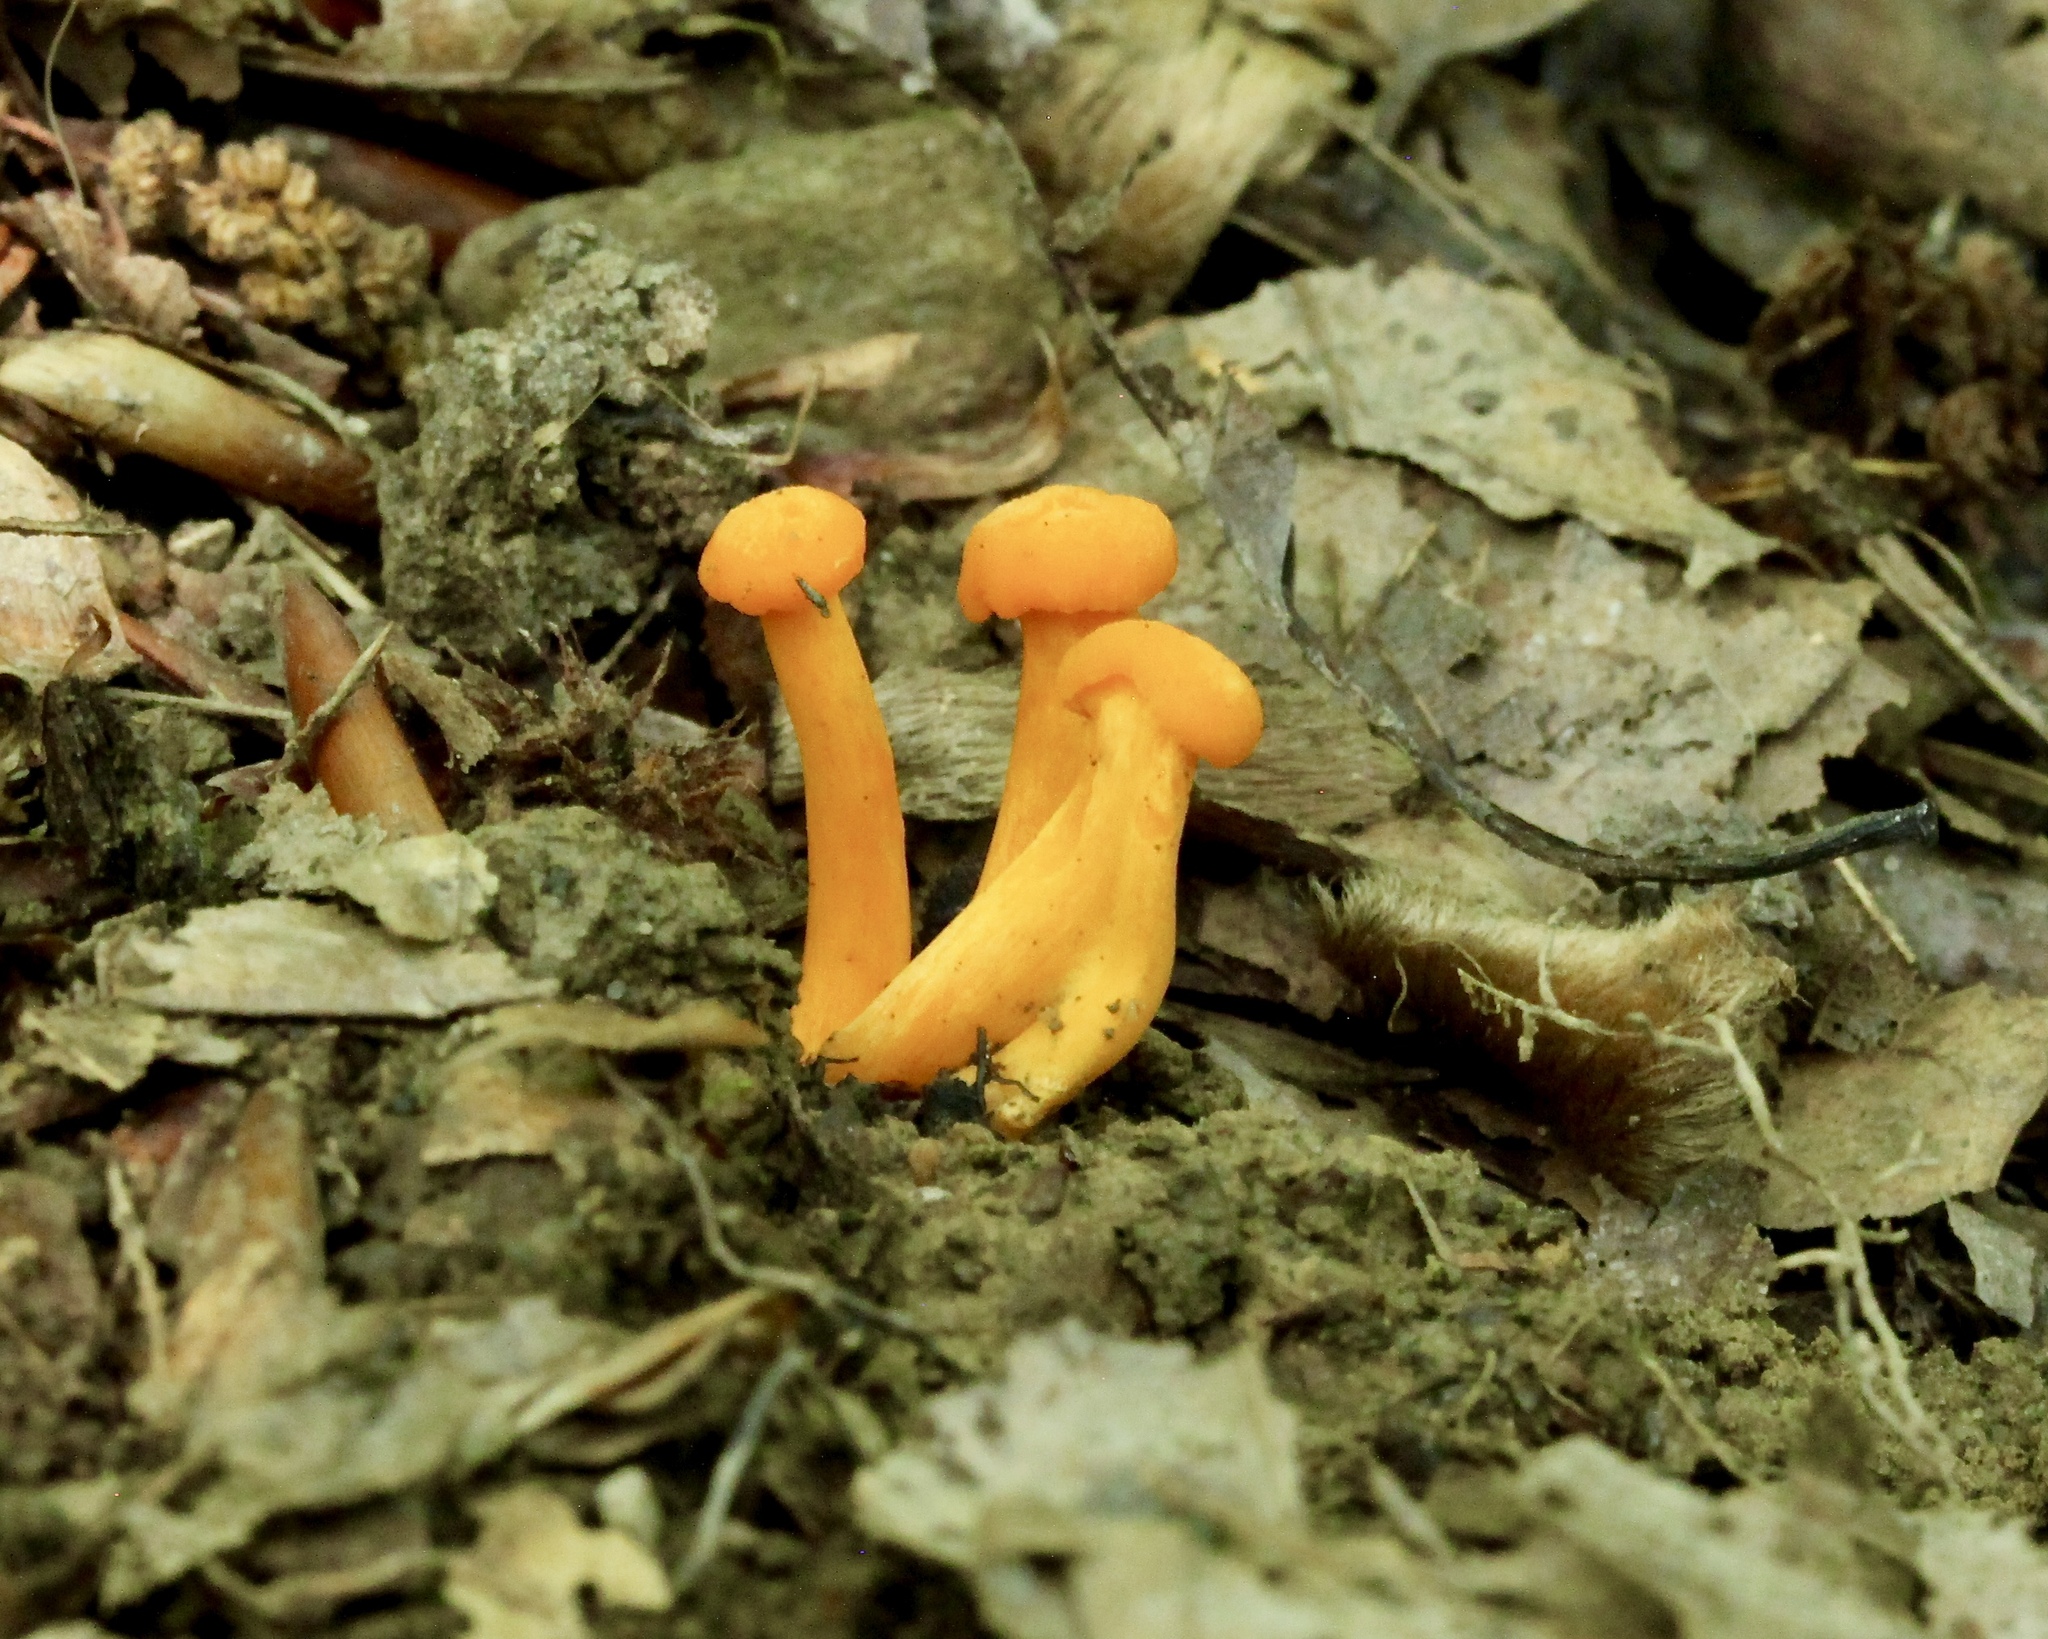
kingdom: Fungi
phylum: Basidiomycota
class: Agaricomycetes
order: Cantharellales
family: Hydnaceae
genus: Cantharellus
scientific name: Cantharellus minor
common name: Small chanterelle
